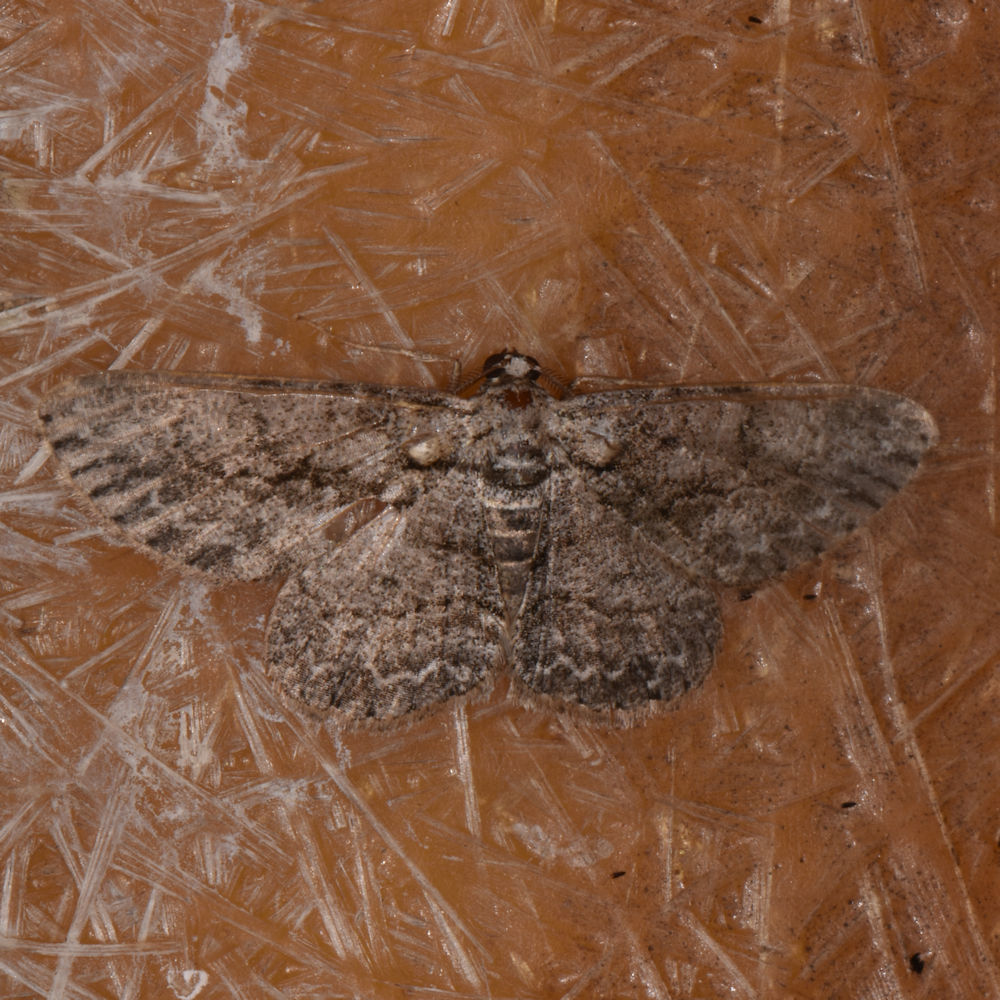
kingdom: Animalia
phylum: Arthropoda
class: Insecta
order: Lepidoptera
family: Geometridae
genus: Anavitrinella
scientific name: Anavitrinella pampinaria
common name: Common gray
